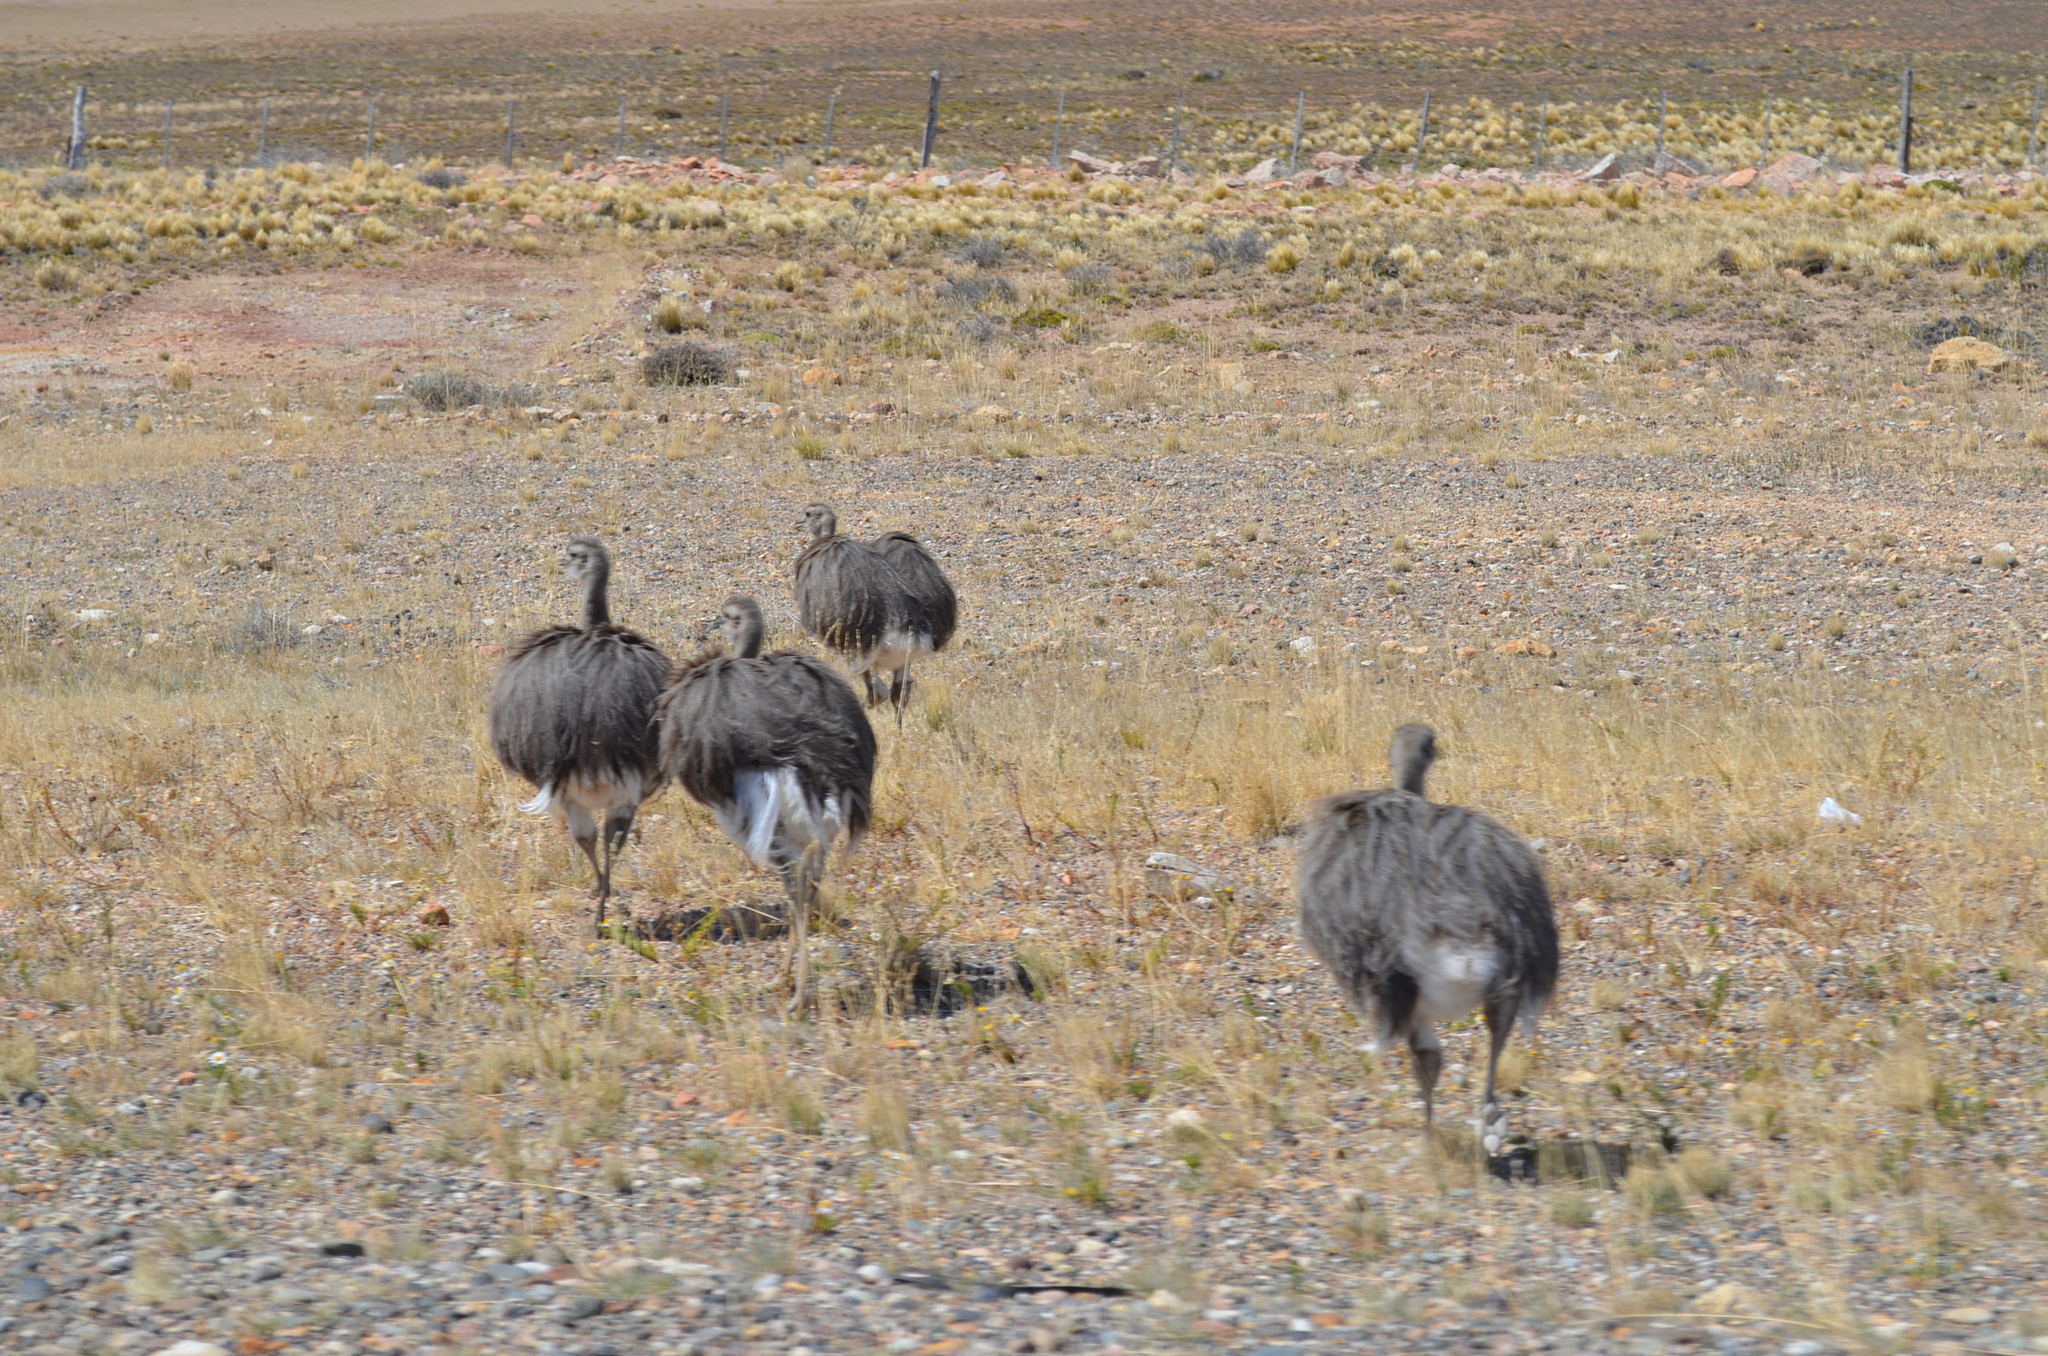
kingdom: Animalia
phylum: Chordata
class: Aves
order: Rheiformes
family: Rheidae
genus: Rhea
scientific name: Rhea pennata
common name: Lesser rhea
